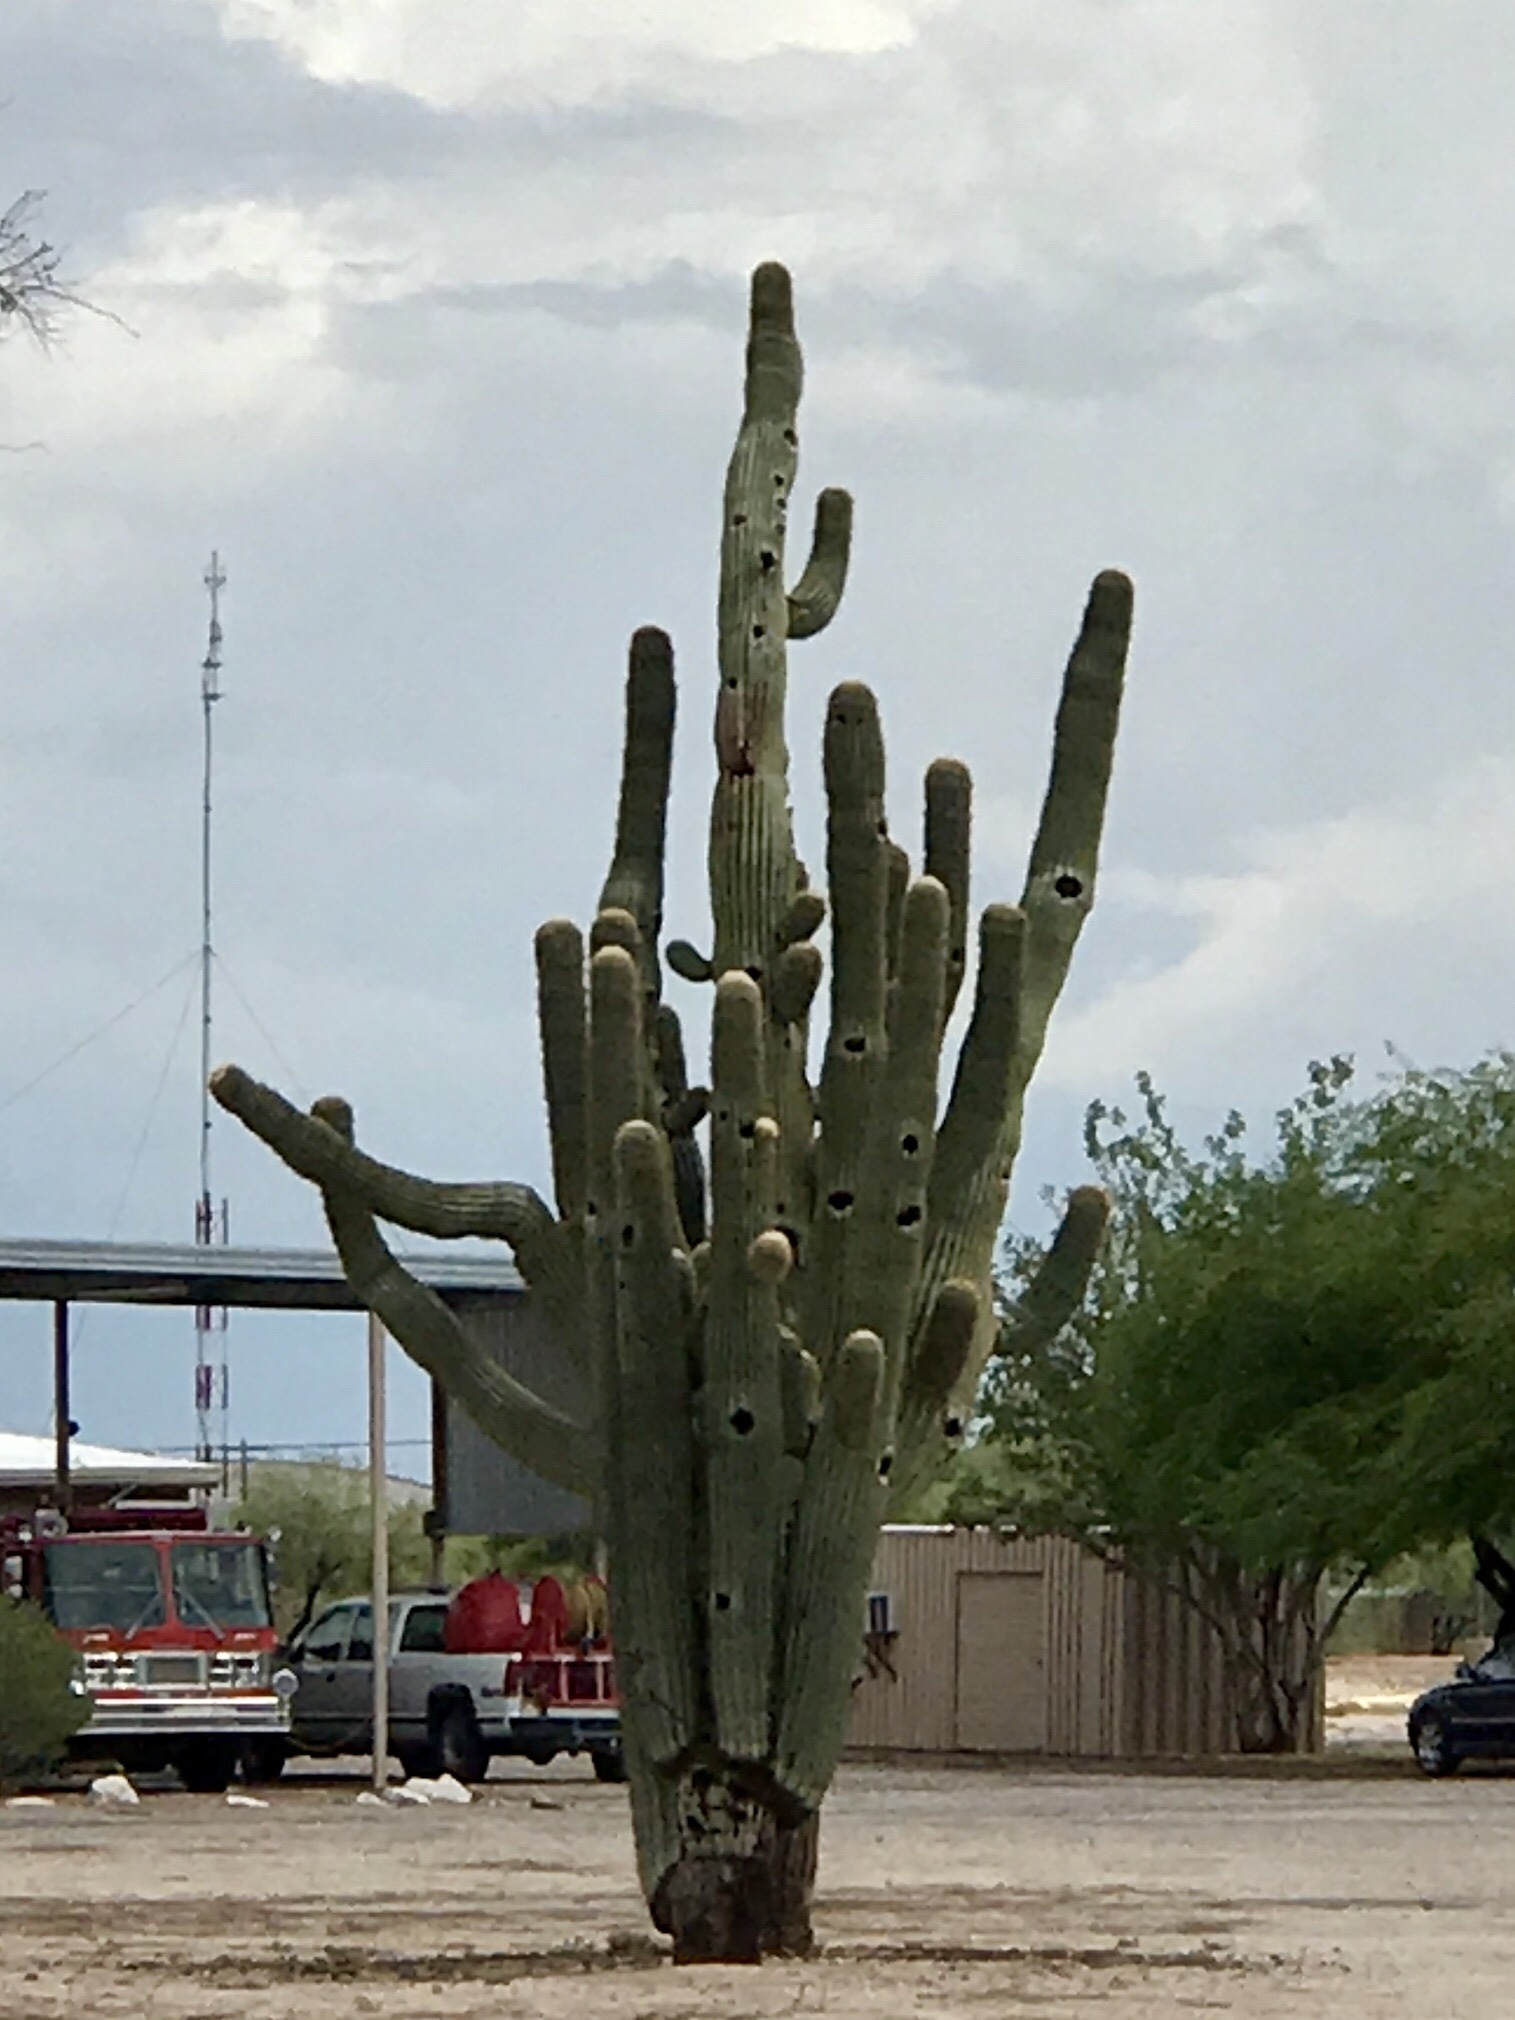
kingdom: Plantae
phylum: Tracheophyta
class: Magnoliopsida
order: Caryophyllales
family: Cactaceae
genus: Carnegiea
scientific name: Carnegiea gigantea
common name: Saguaro
